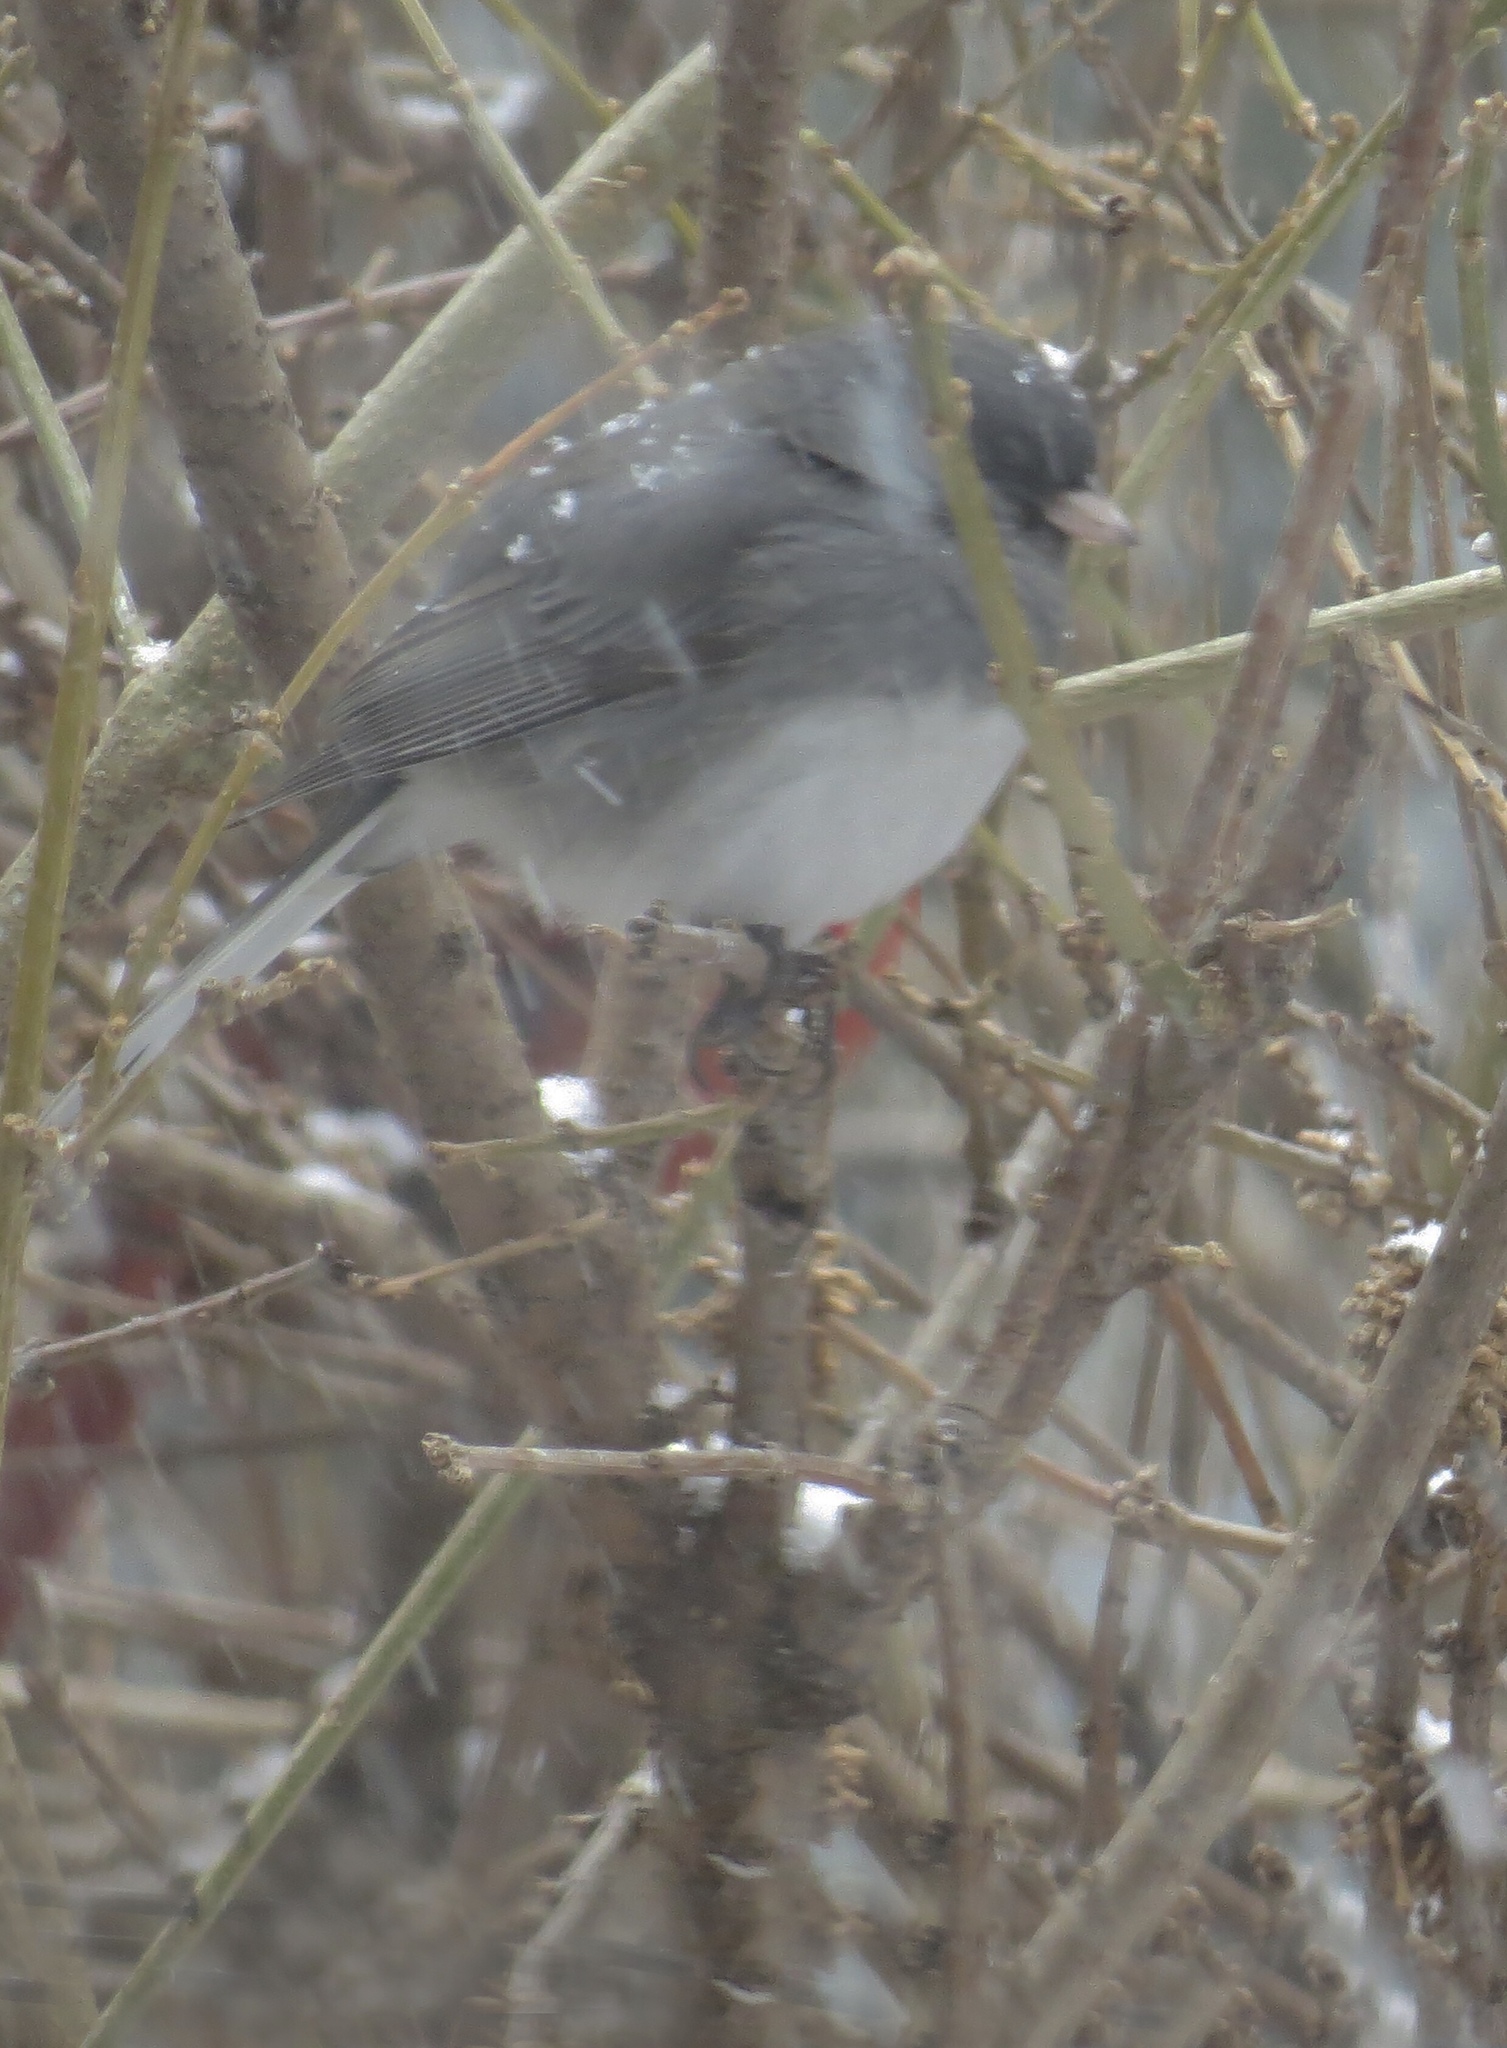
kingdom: Animalia
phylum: Chordata
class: Aves
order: Passeriformes
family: Passerellidae
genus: Junco
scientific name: Junco hyemalis
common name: Dark-eyed junco
